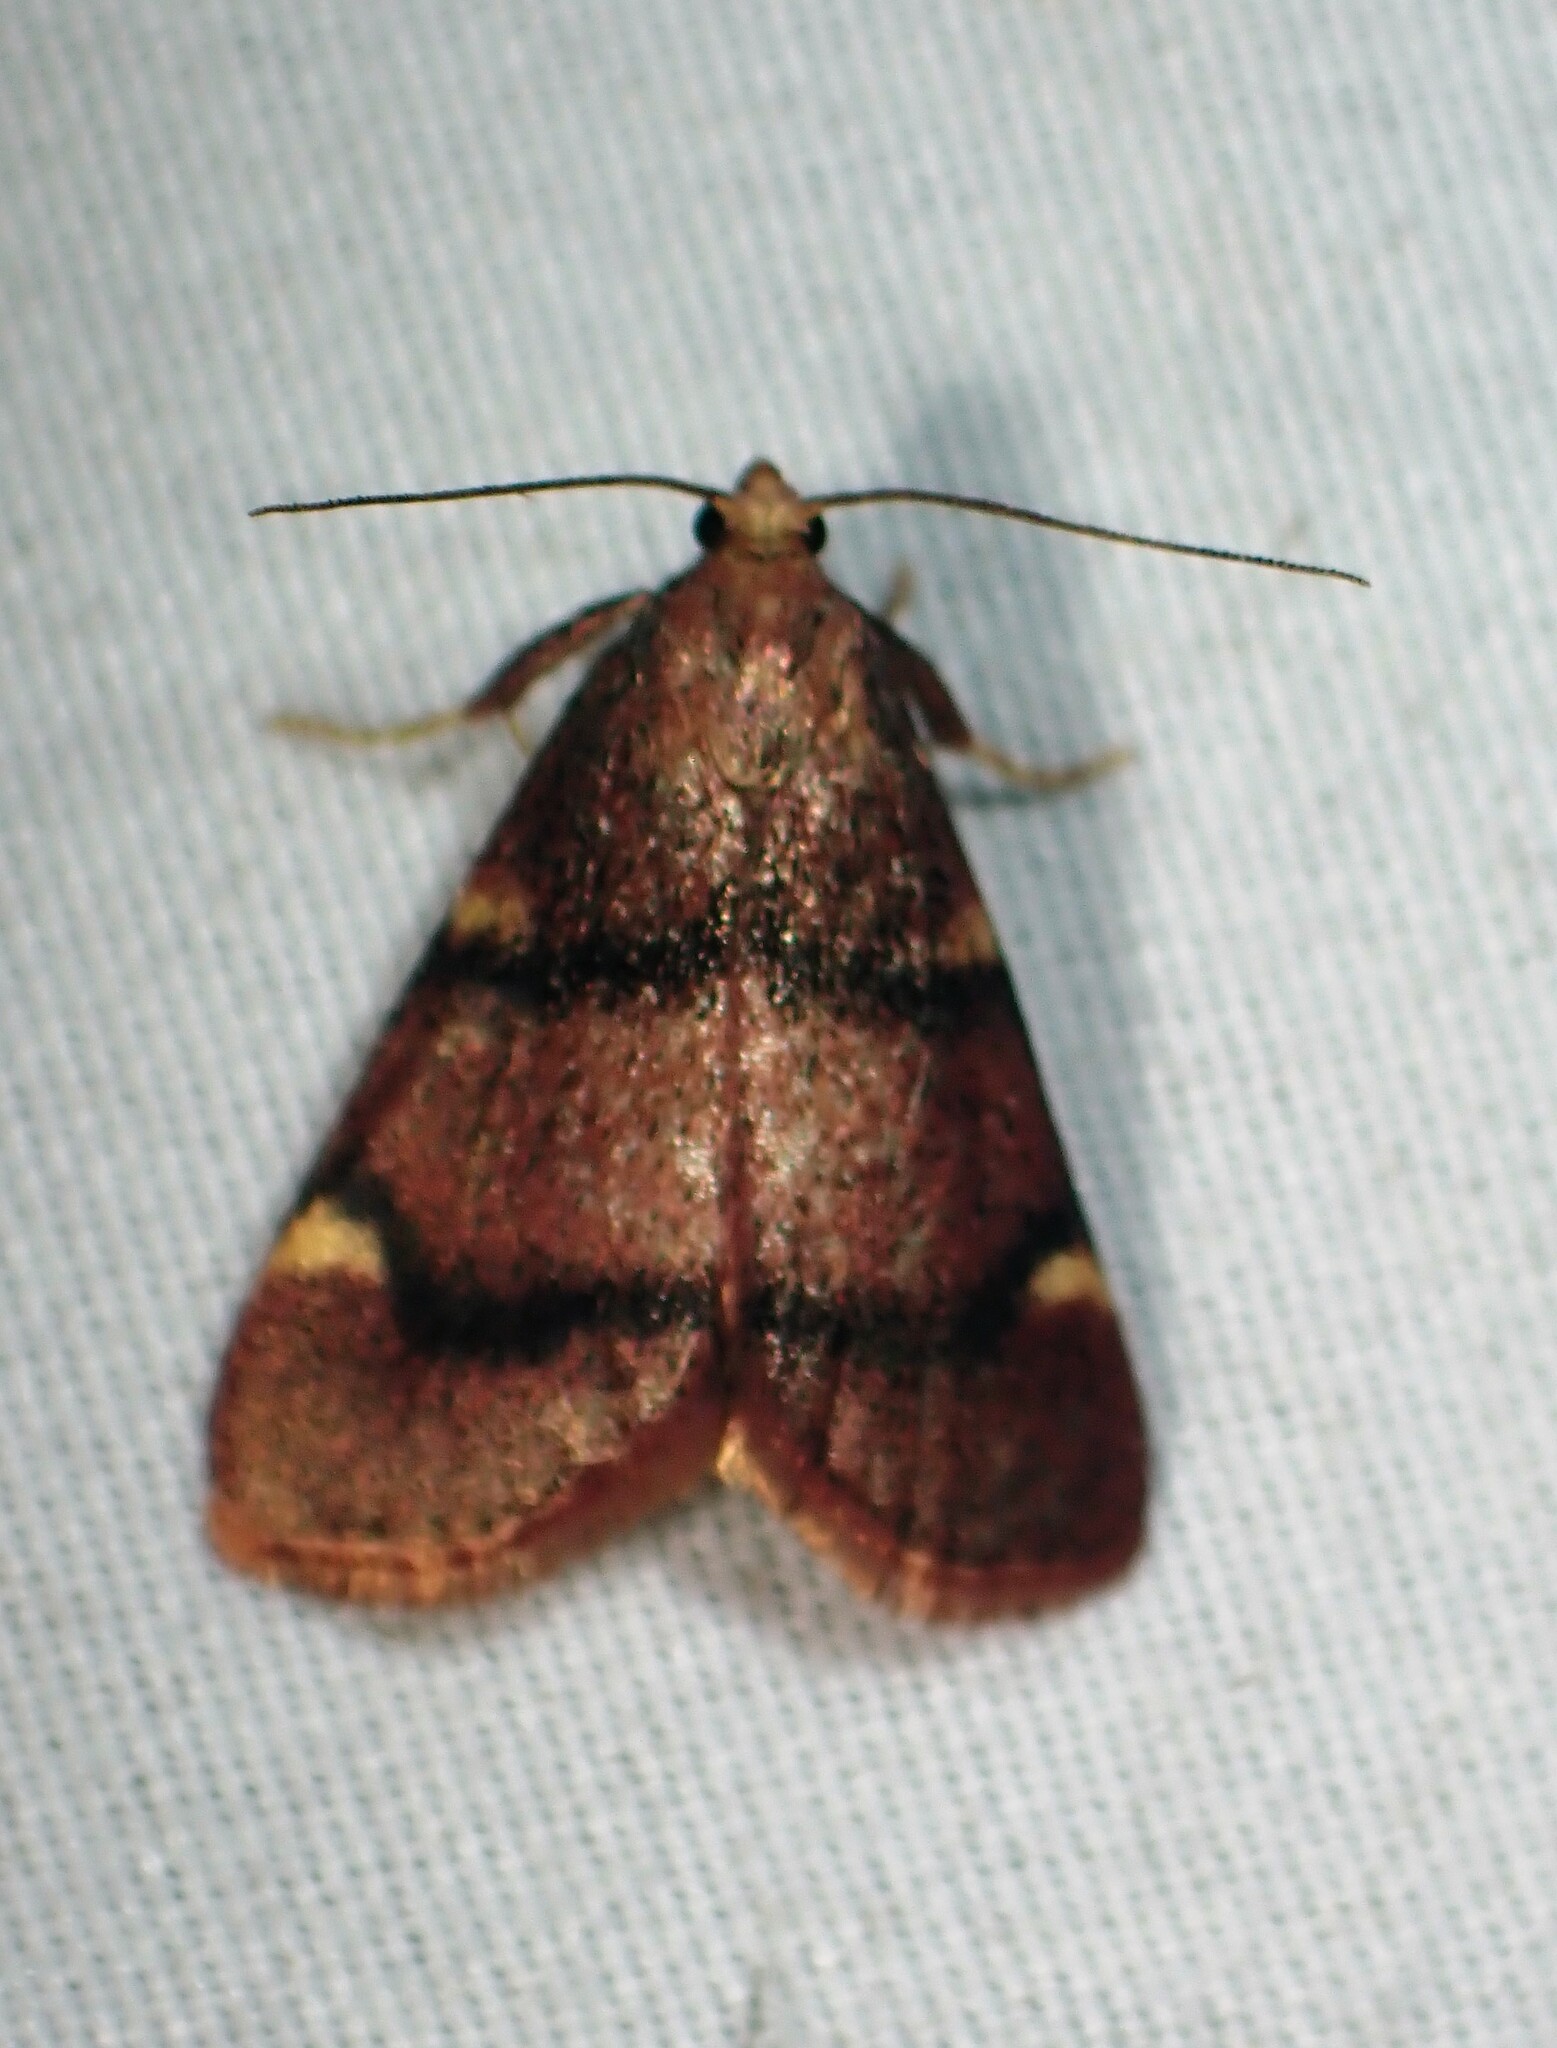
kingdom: Animalia
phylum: Arthropoda
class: Insecta
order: Lepidoptera
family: Pyralidae
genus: Hypsopygia
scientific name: Hypsopygia thymetusalis
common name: Spruce needleworm moth
